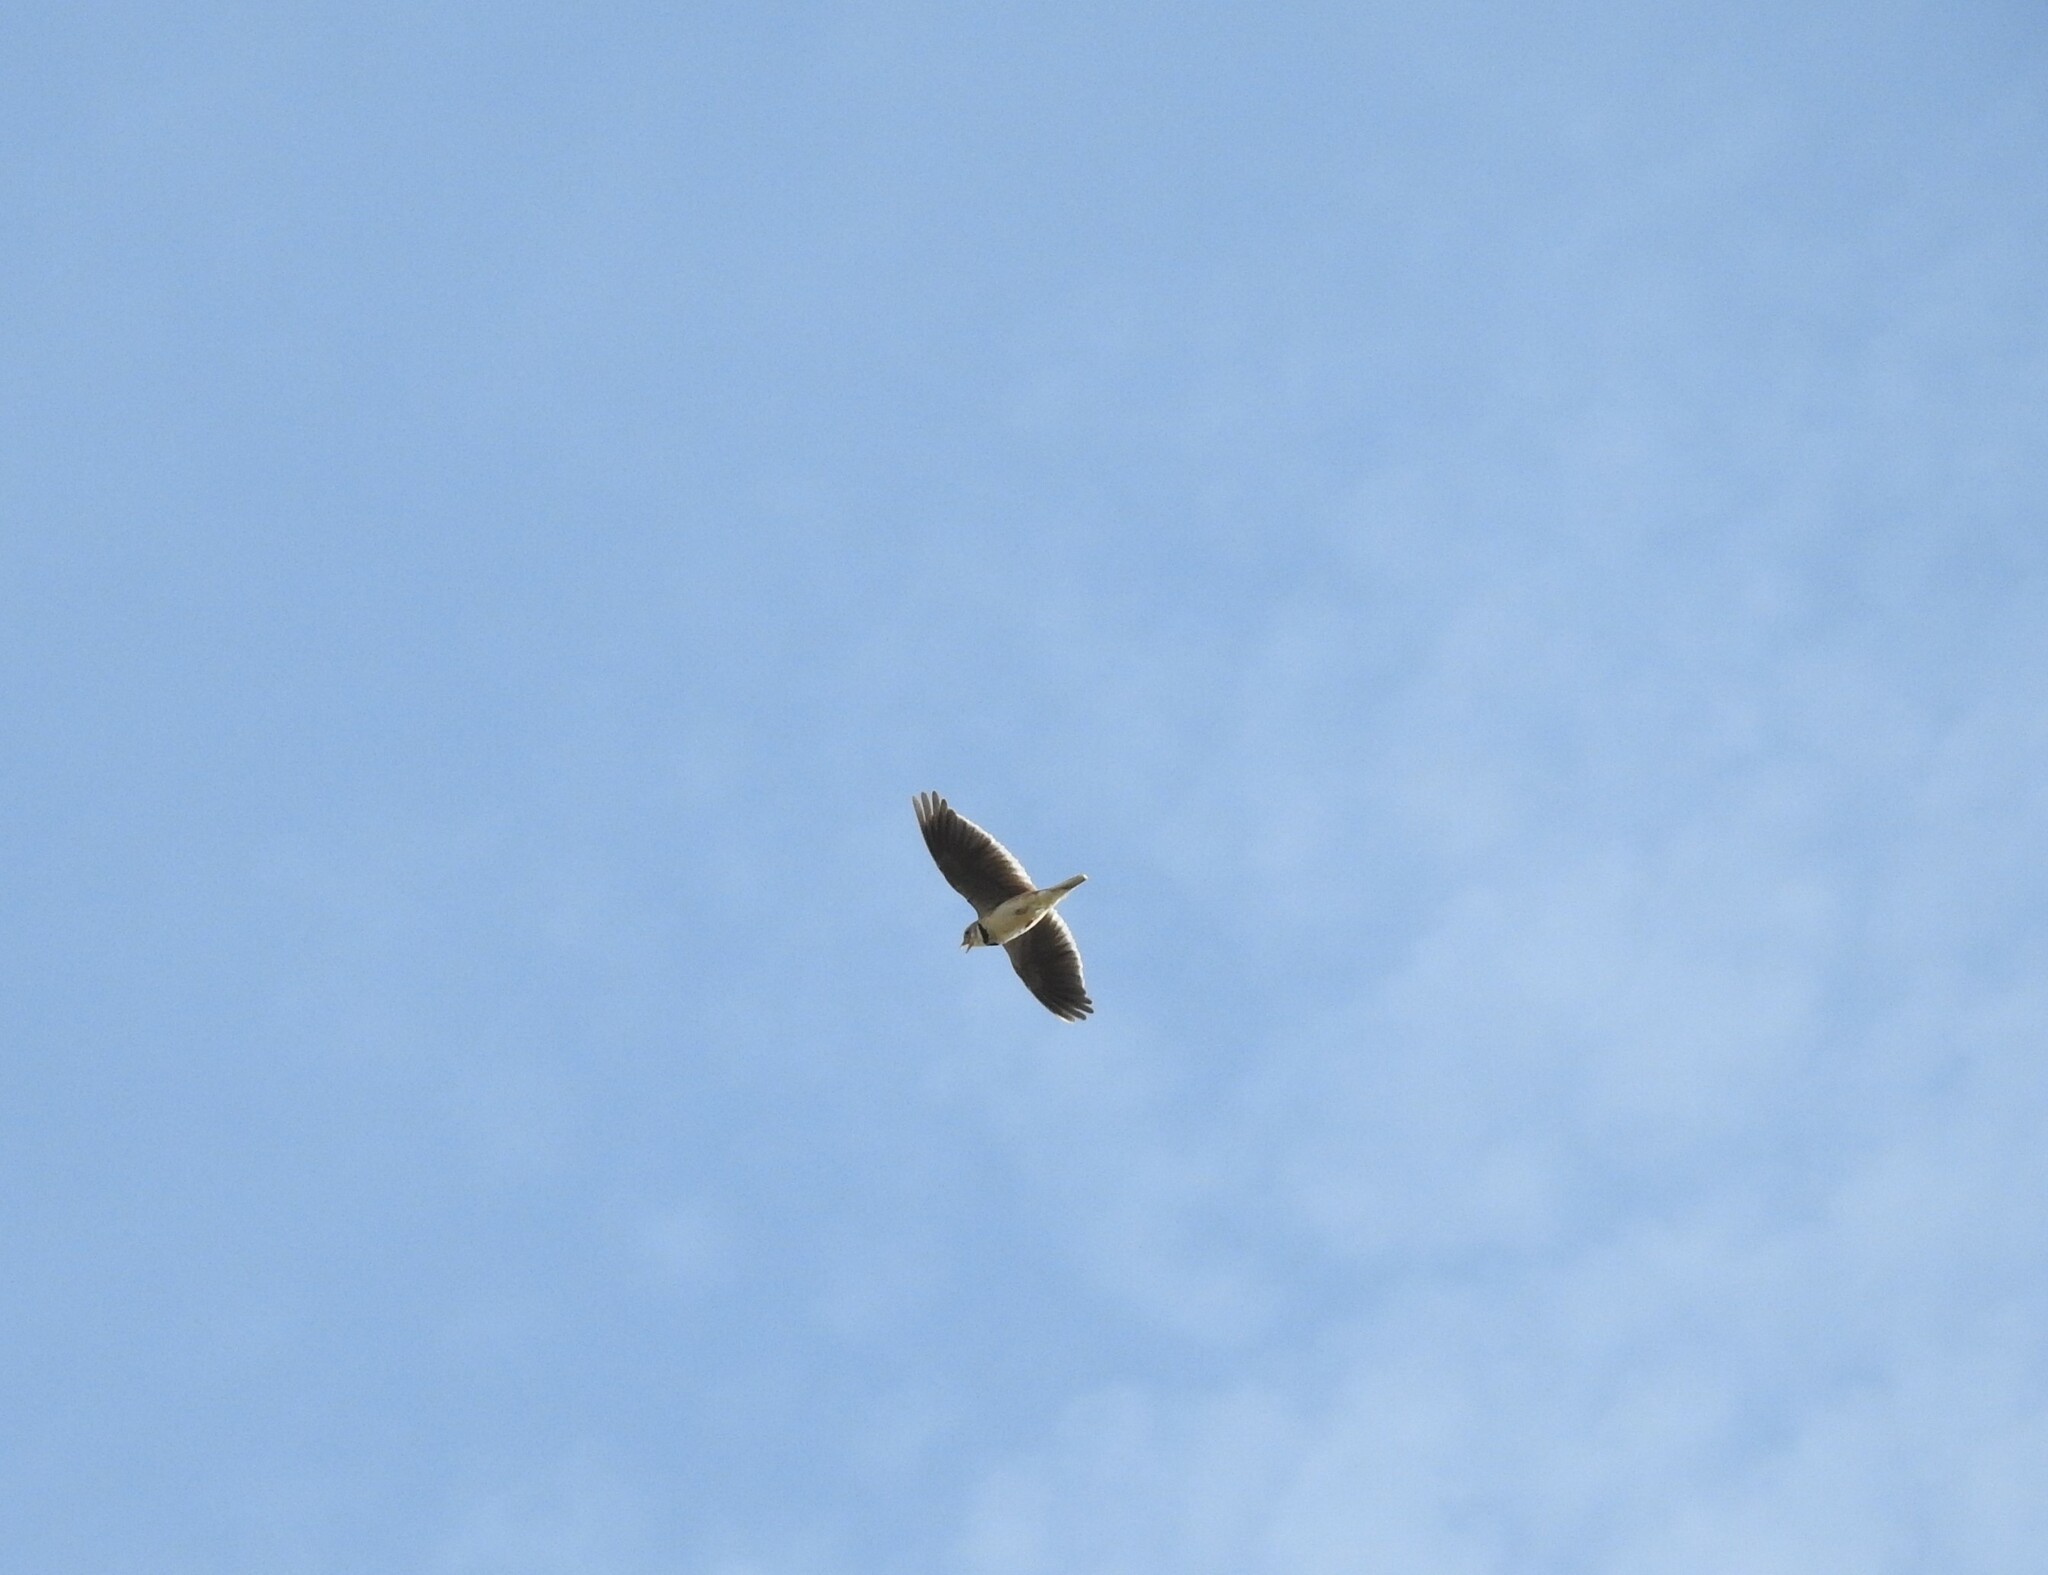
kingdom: Animalia
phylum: Chordata
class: Aves
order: Passeriformes
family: Alaudidae
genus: Melanocorypha
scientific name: Melanocorypha calandra
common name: Calandra lark
